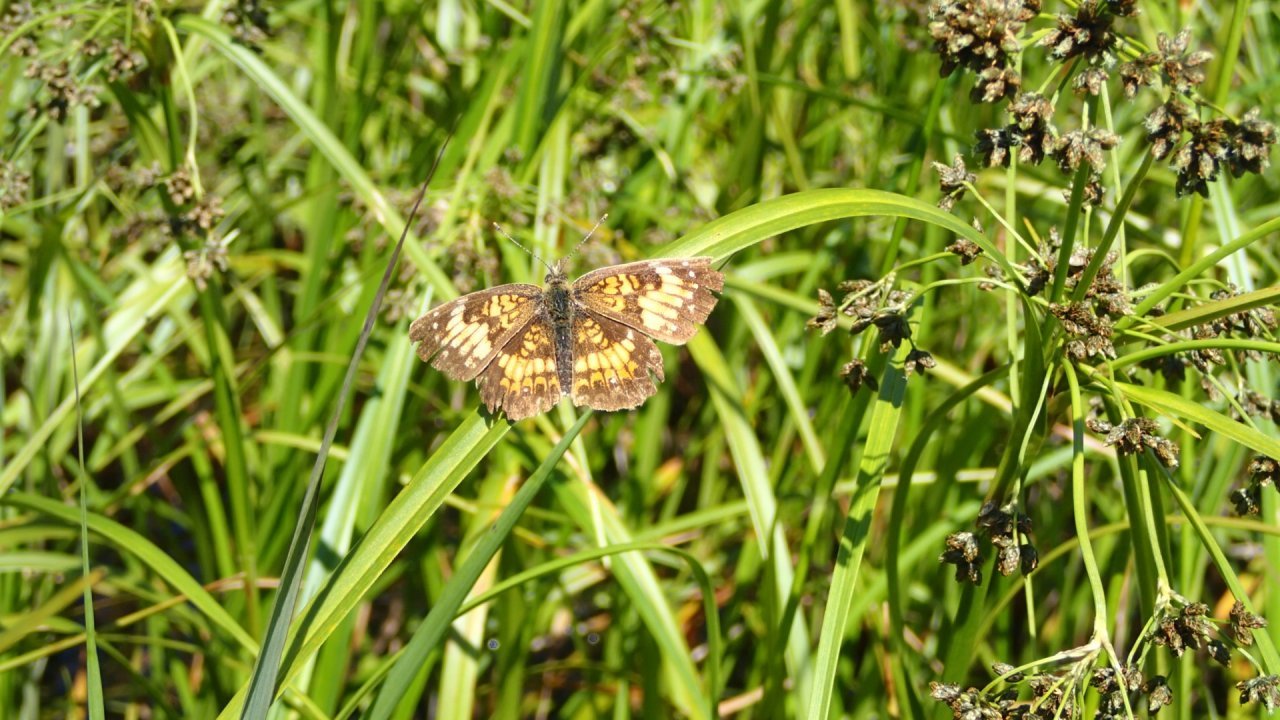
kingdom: Animalia
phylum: Arthropoda
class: Insecta
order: Lepidoptera
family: Nymphalidae
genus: Chlosyne
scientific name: Chlosyne harrisii
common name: Harris's checkerspot
